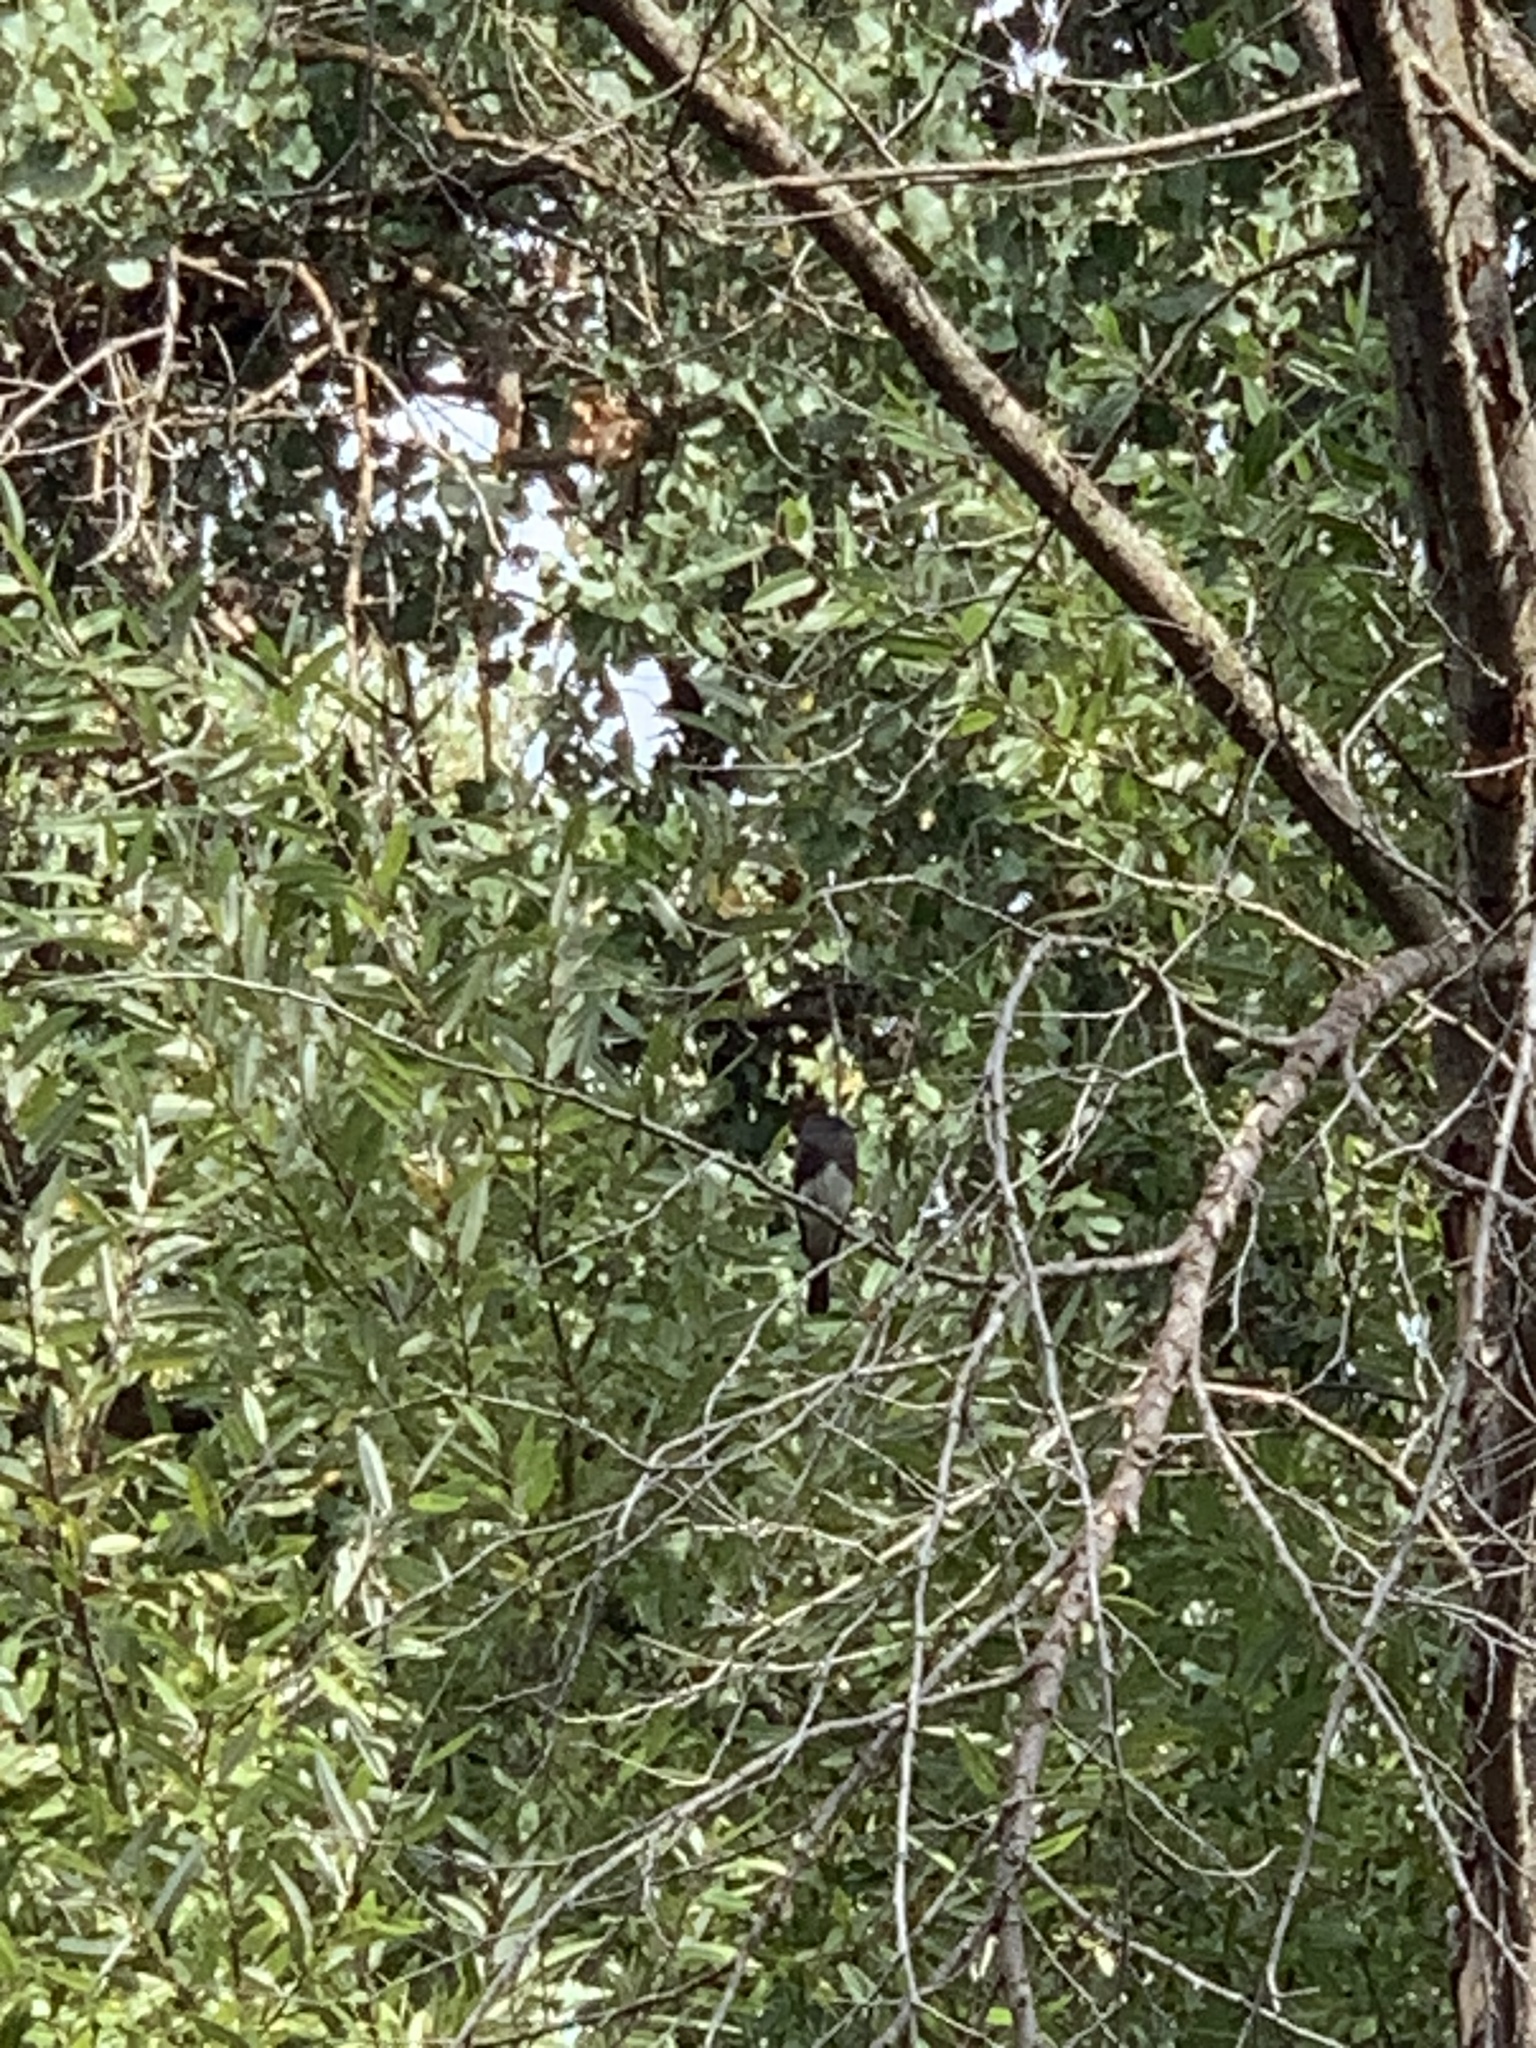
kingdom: Animalia
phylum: Chordata
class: Aves
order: Passeriformes
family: Tyrannidae
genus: Sayornis
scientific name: Sayornis nigricans
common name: Black phoebe
